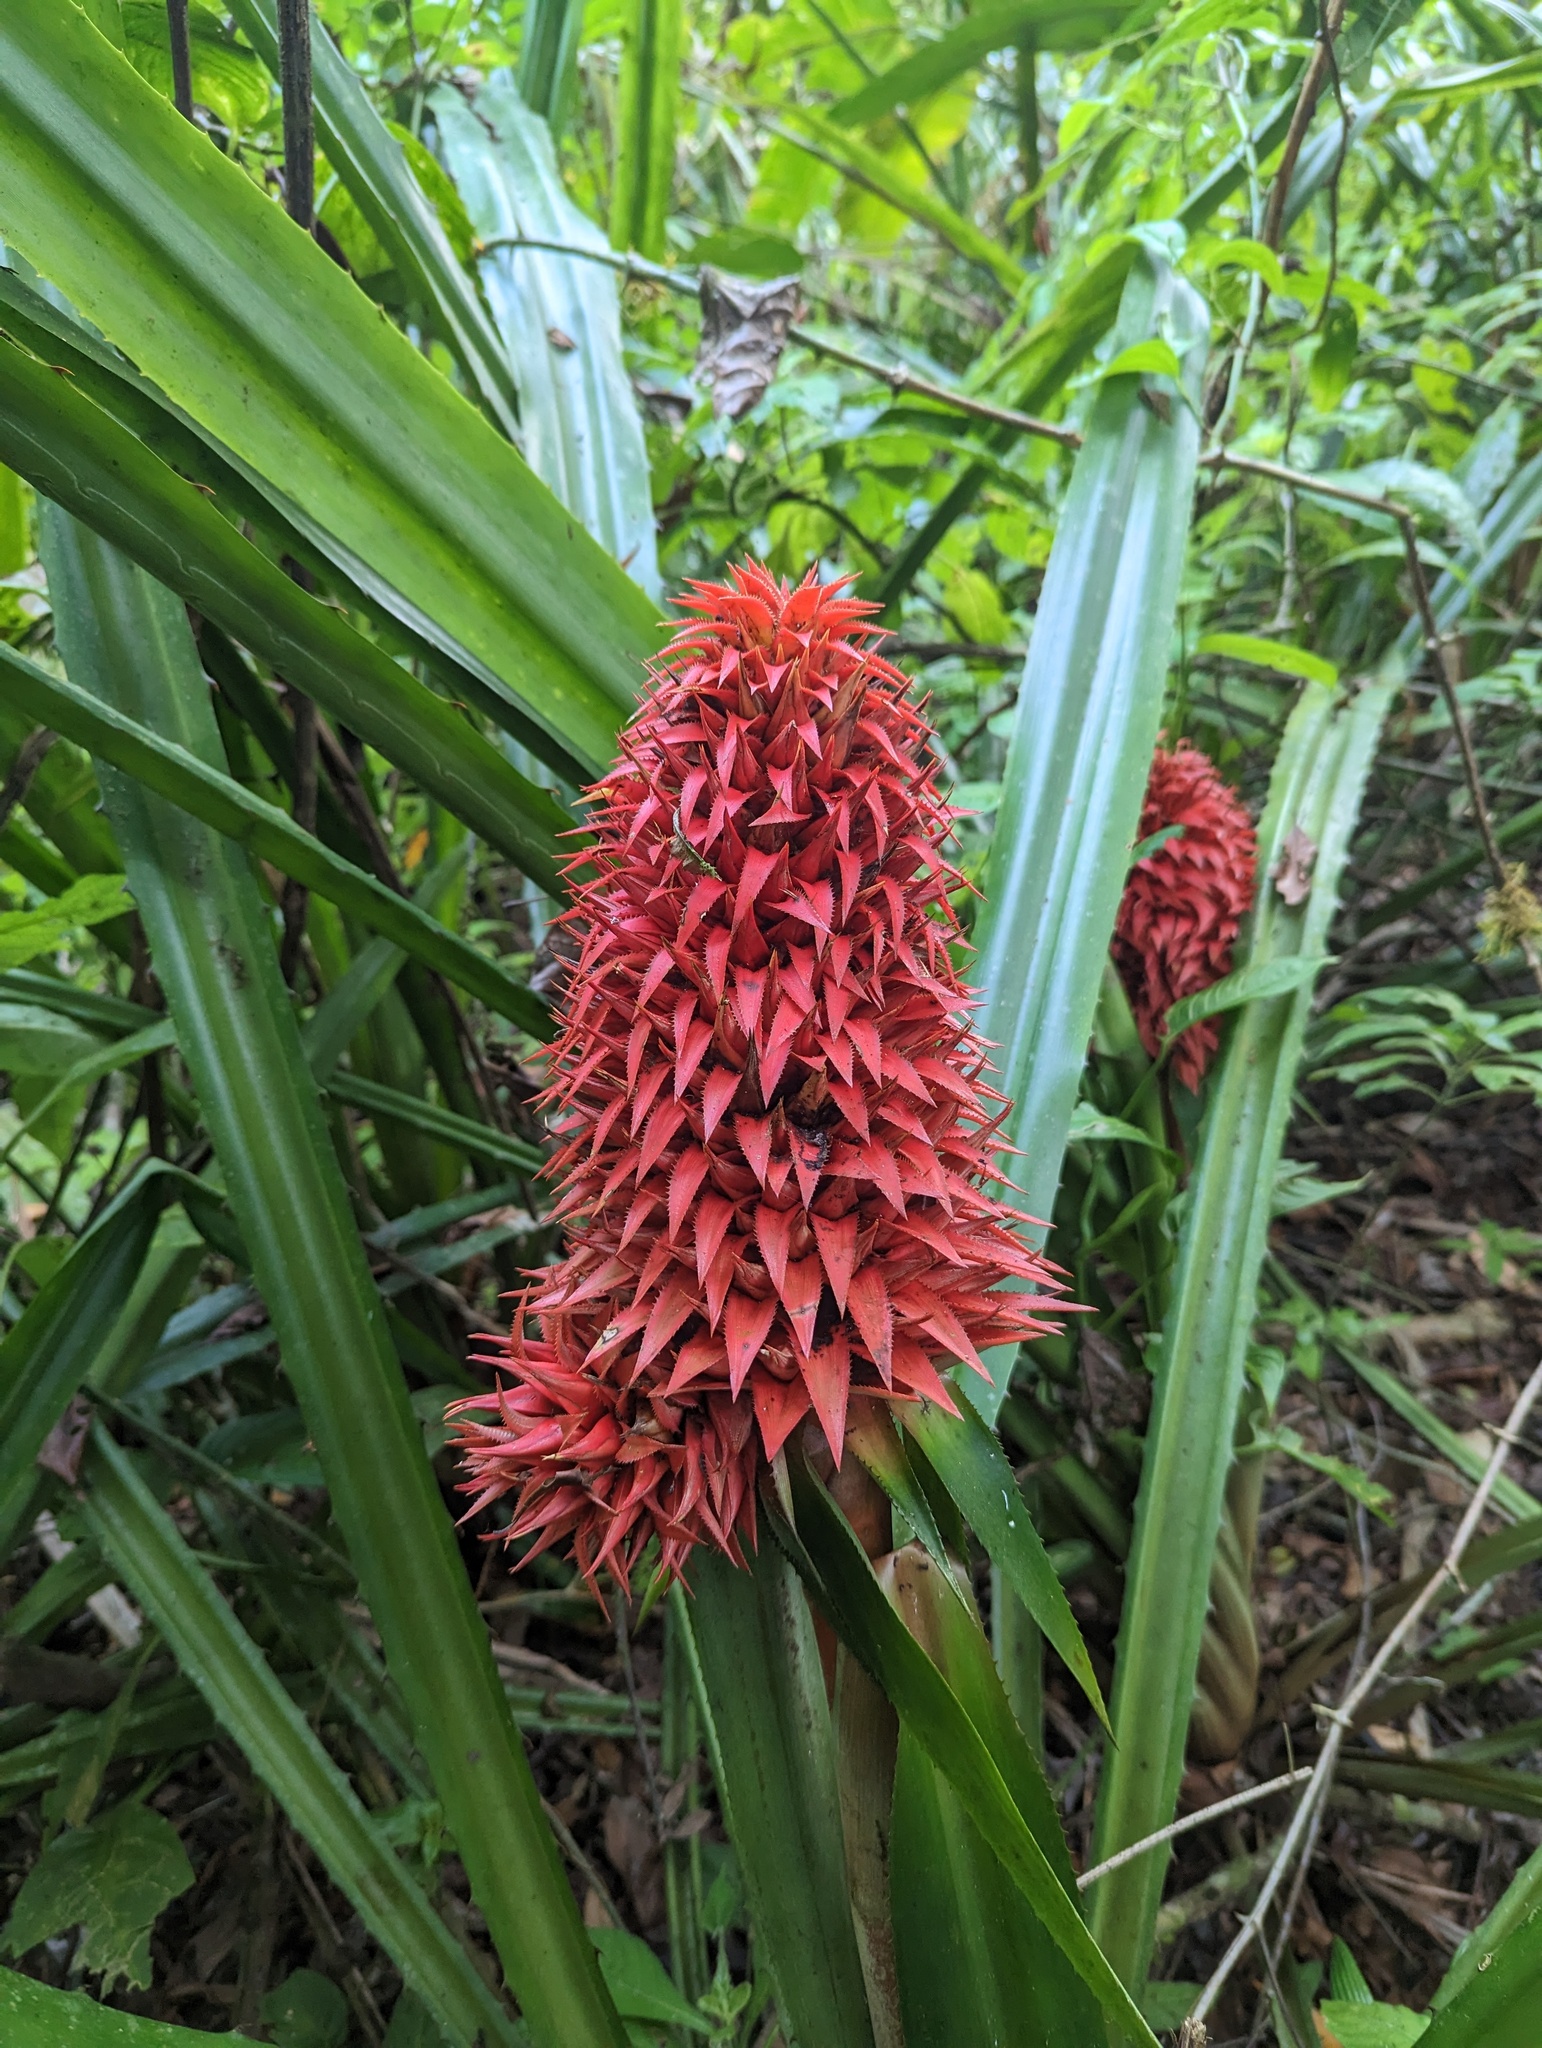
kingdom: Plantae
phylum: Tracheophyta
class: Liliopsida
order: Poales
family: Bromeliaceae
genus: Aechmea
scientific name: Aechmea magdalenae
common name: Arghan
